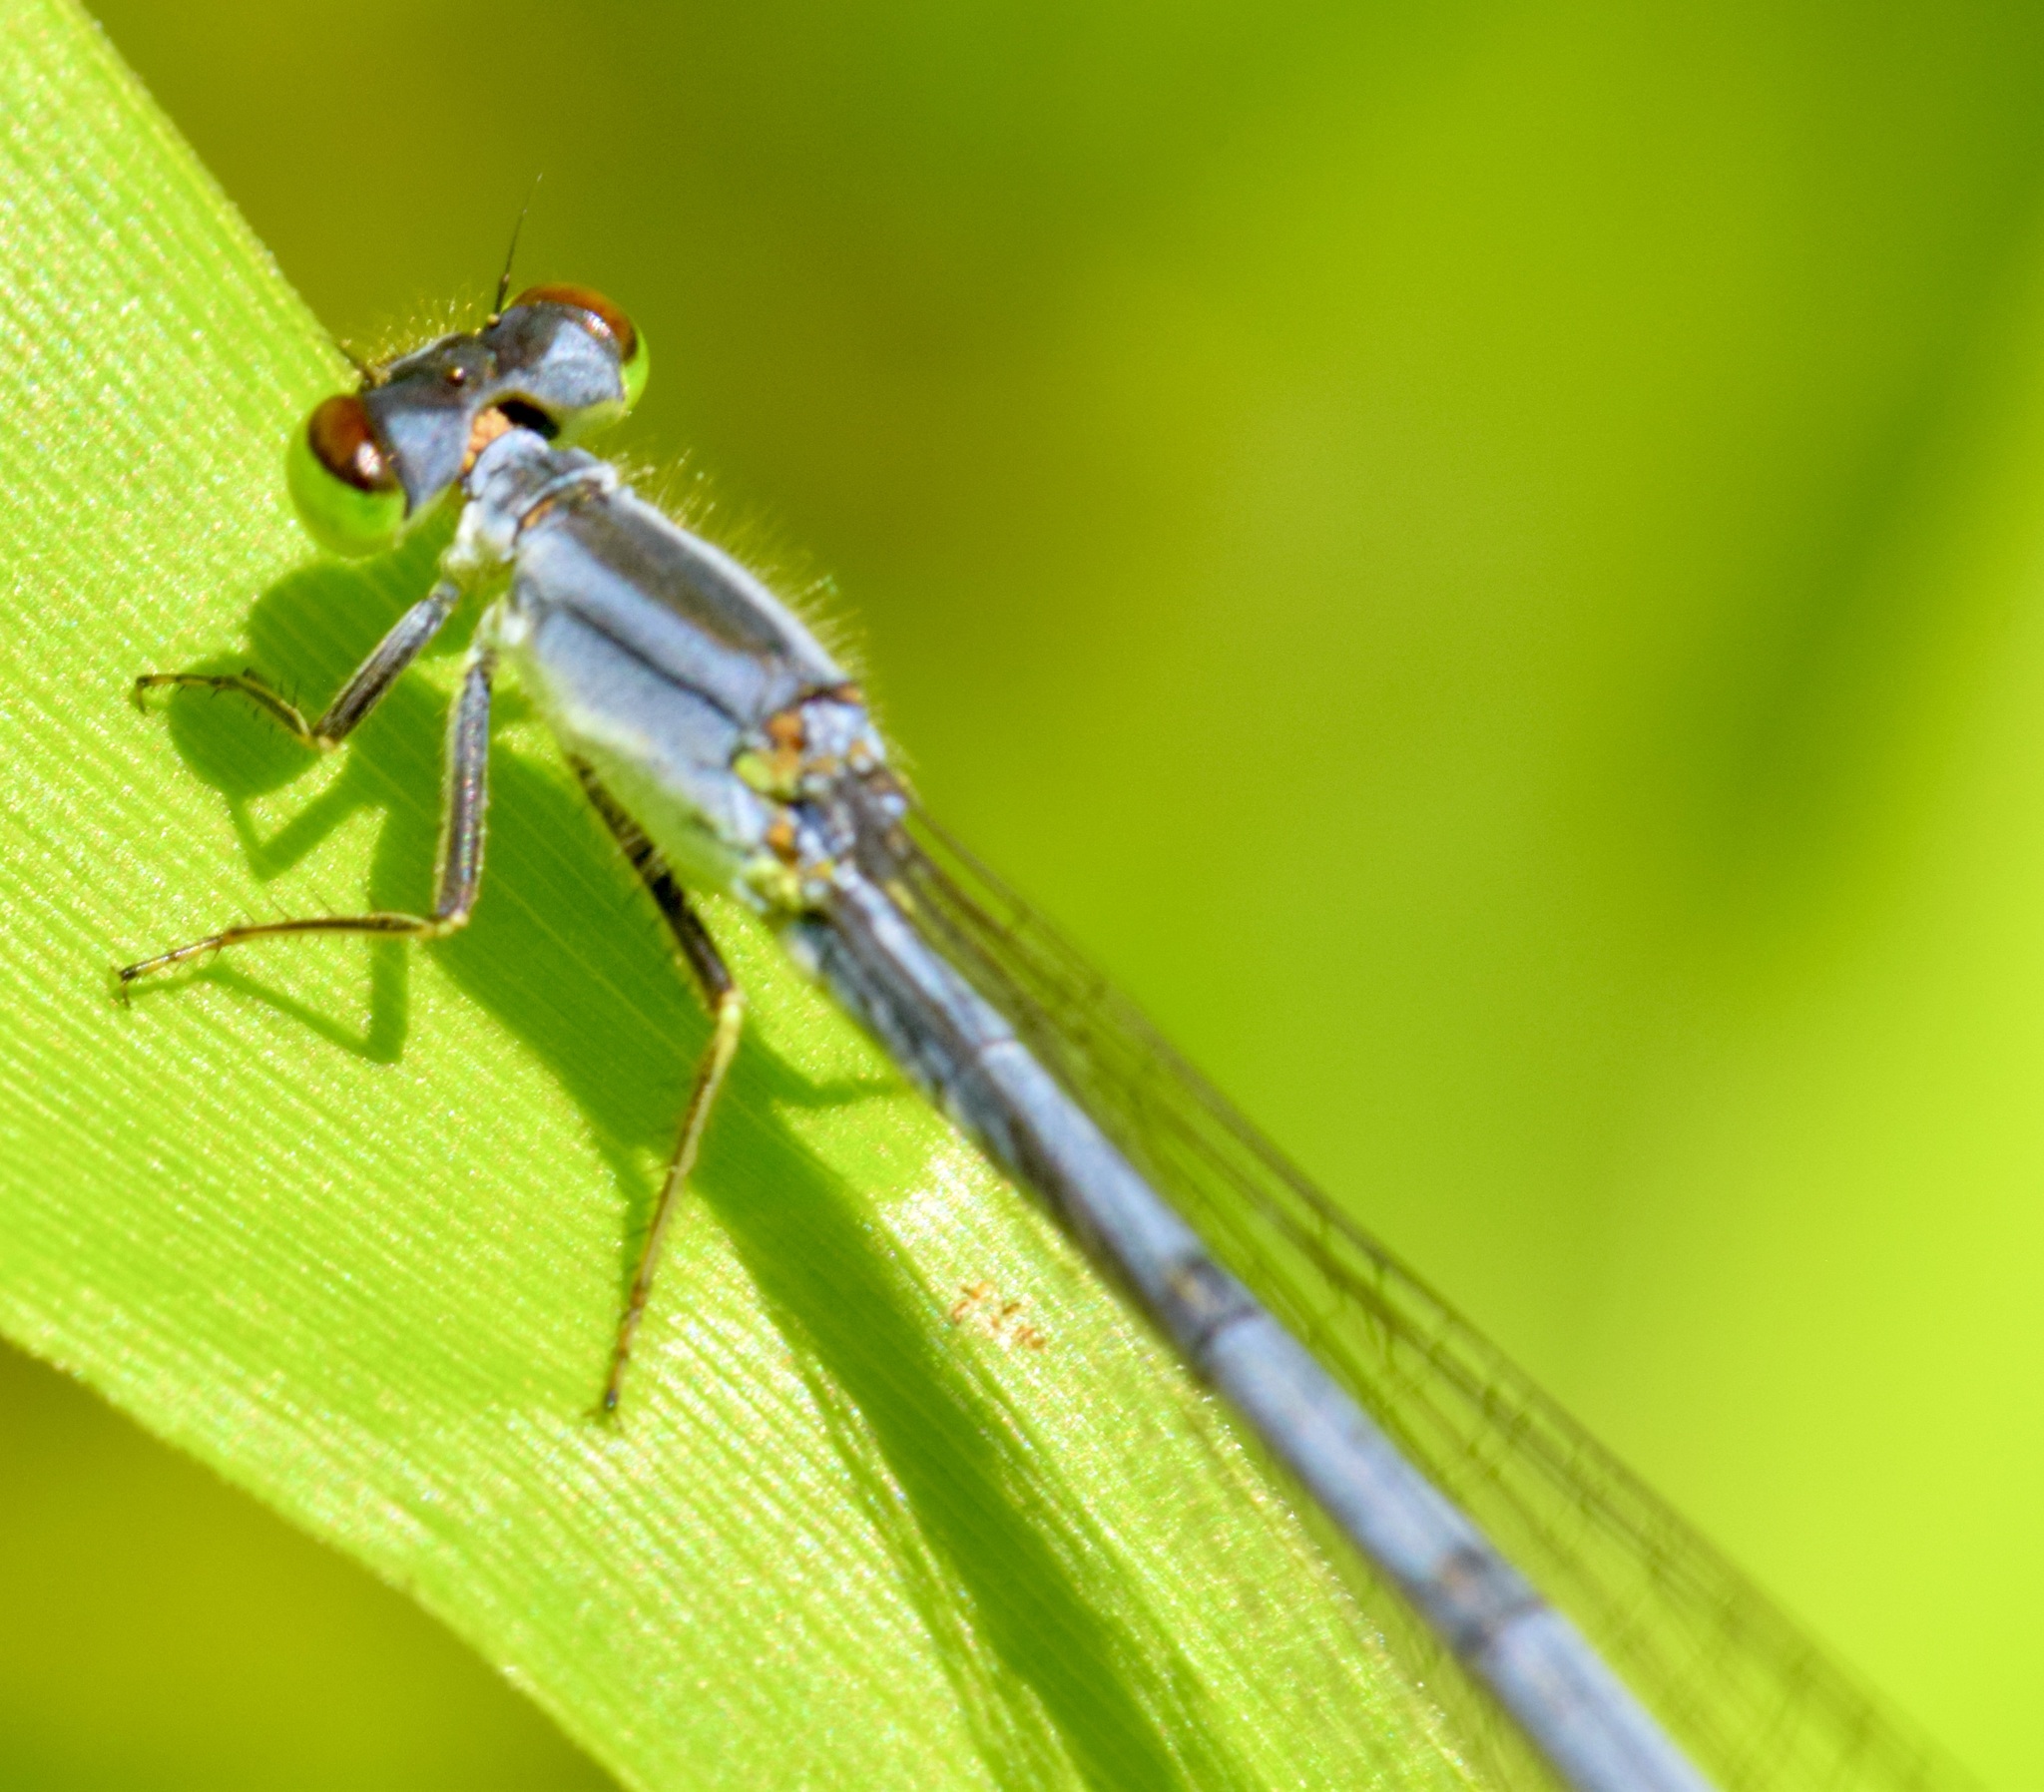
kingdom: Animalia
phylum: Arthropoda
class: Insecta
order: Odonata
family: Coenagrionidae
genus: Ischnura
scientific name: Ischnura verticalis
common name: Eastern forktail
